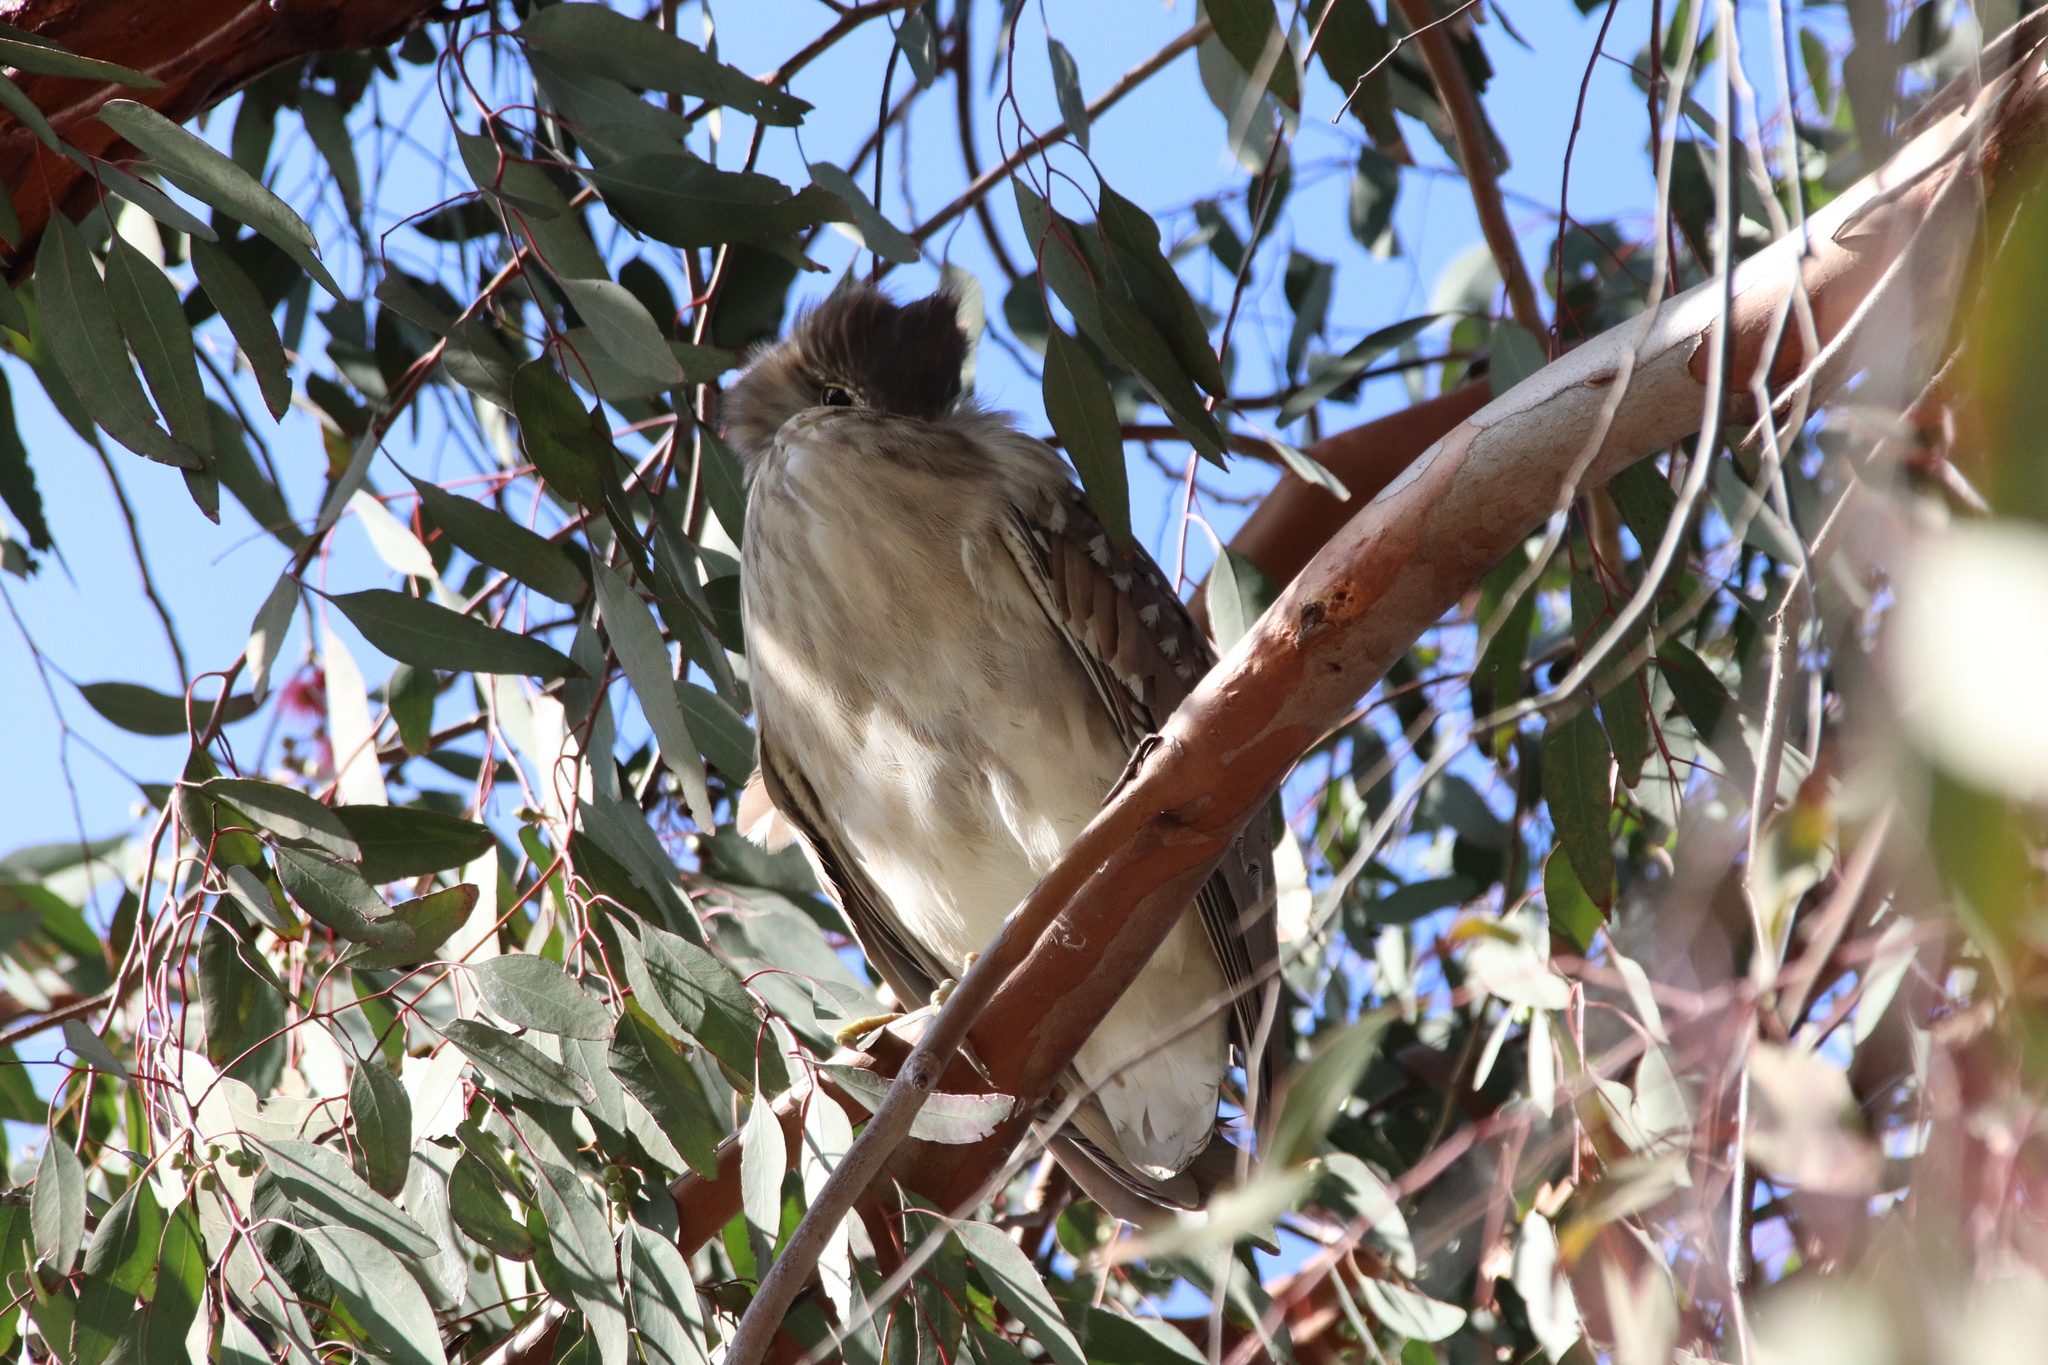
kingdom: Animalia
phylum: Chordata
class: Aves
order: Pelecaniformes
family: Ardeidae
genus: Nycticorax
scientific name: Nycticorax nycticorax
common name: Black-crowned night heron
